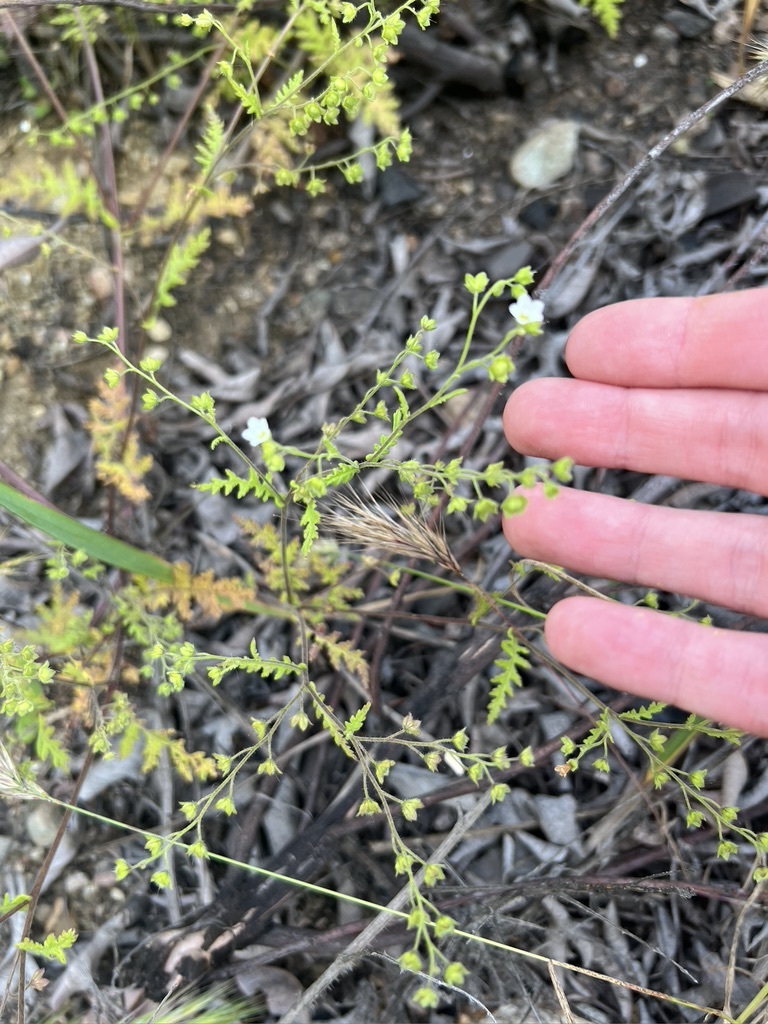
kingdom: Plantae
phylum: Tracheophyta
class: Magnoliopsida
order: Boraginales
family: Hydrophyllaceae
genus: Eucrypta
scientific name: Eucrypta chrysanthemifolia
